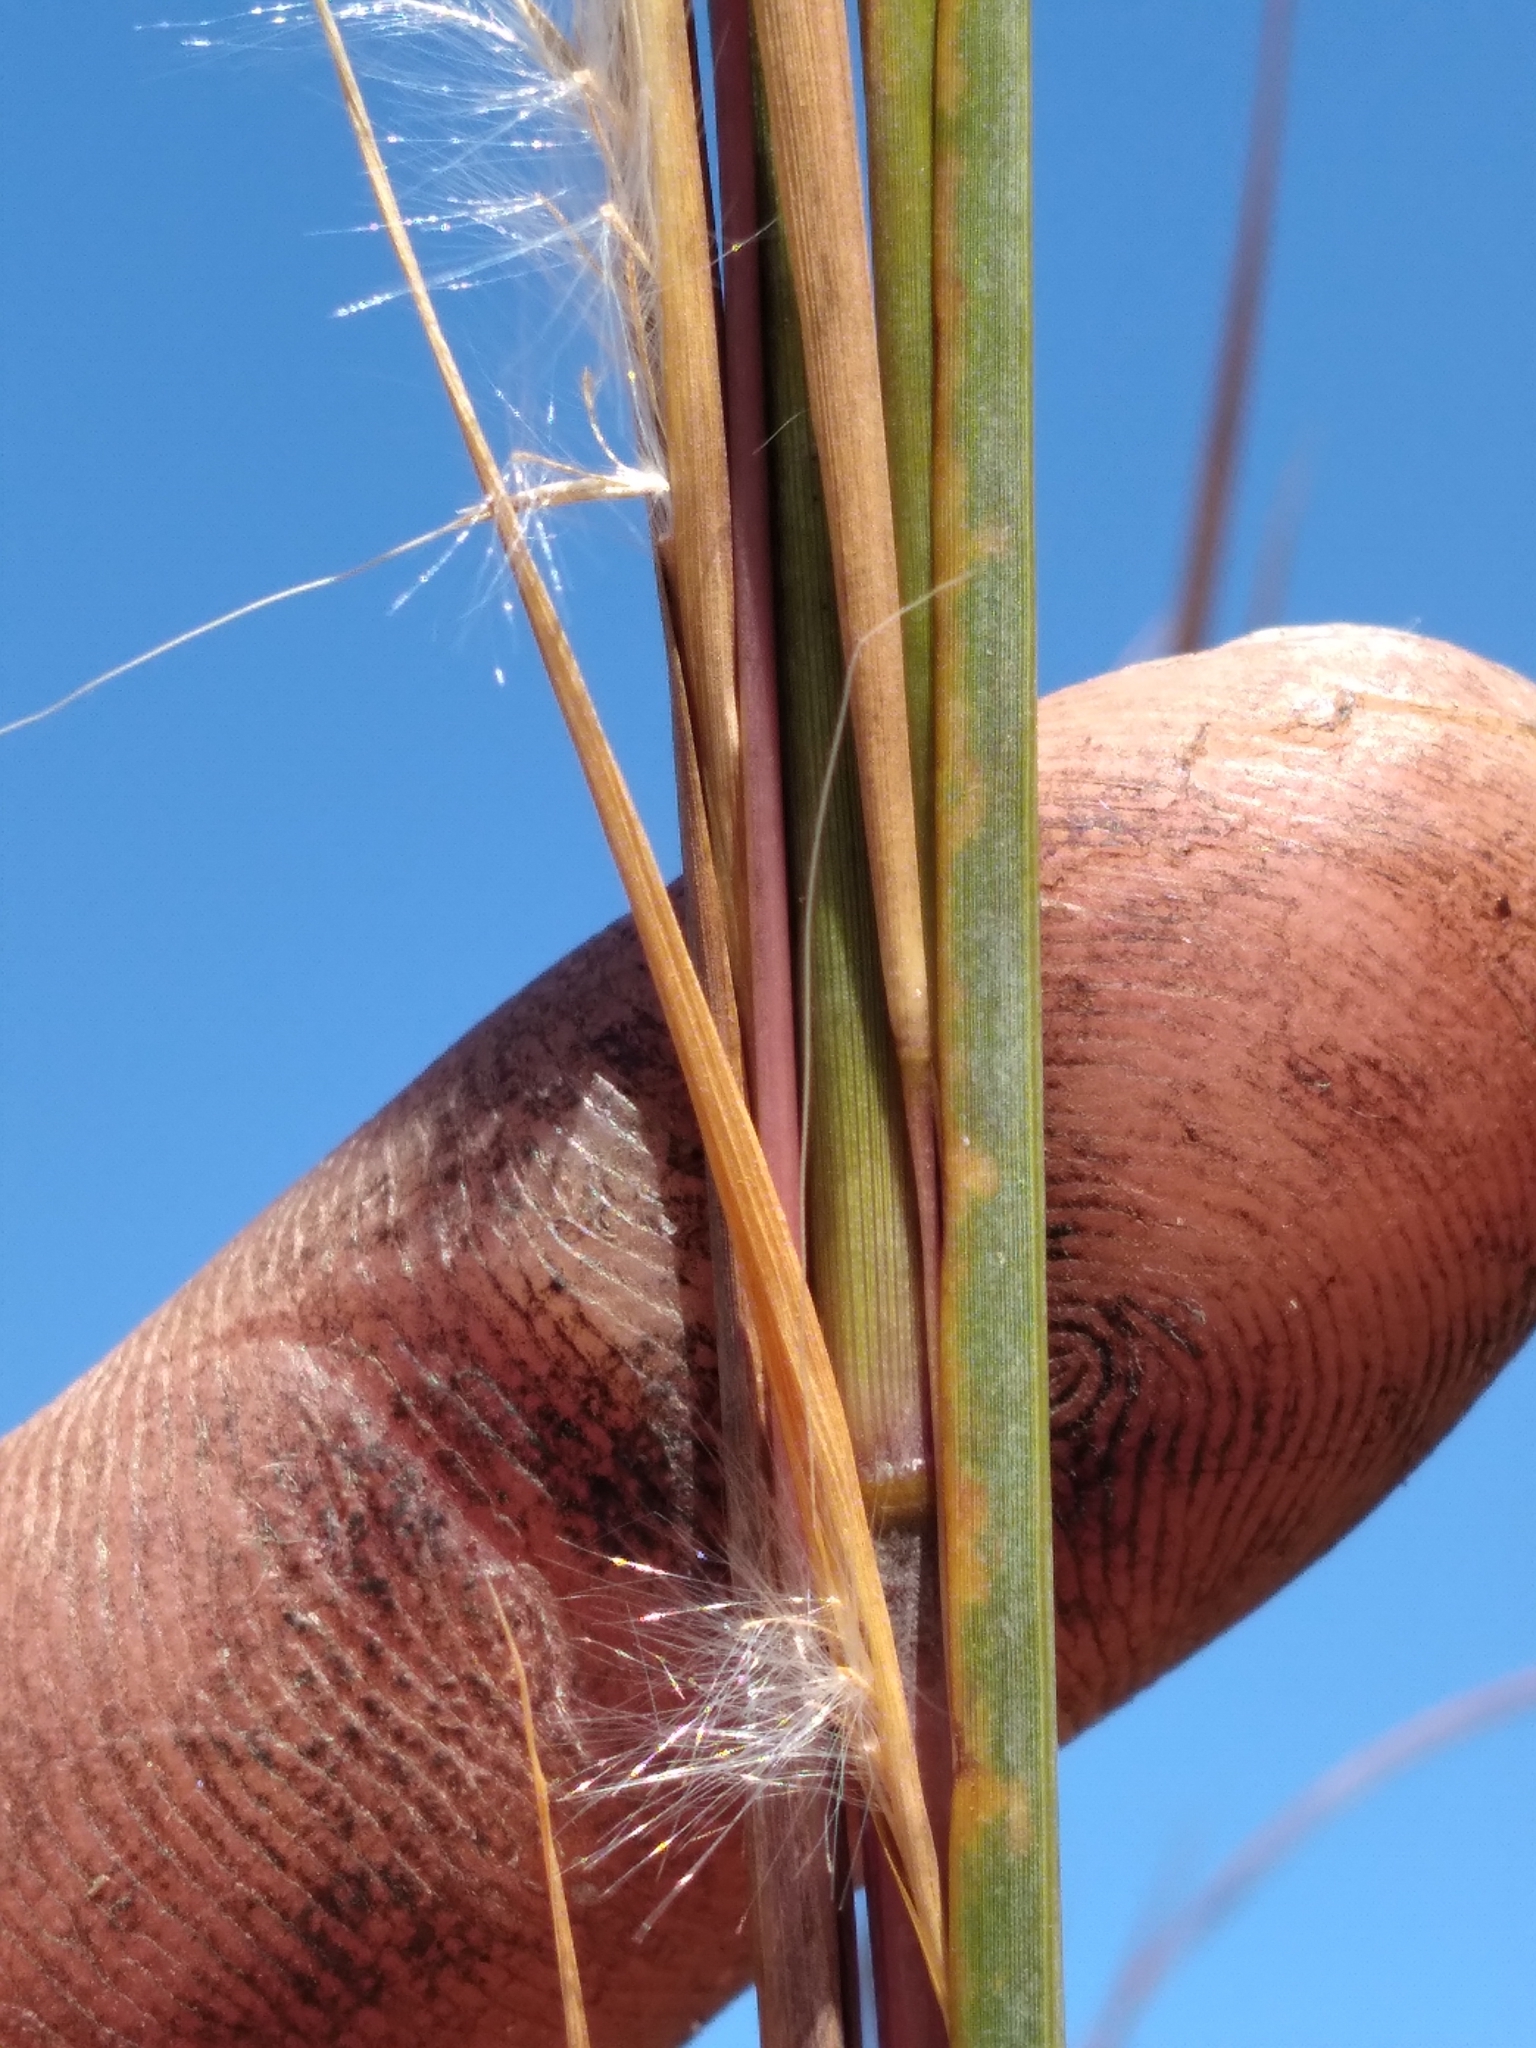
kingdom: Plantae
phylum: Tracheophyta
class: Liliopsida
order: Poales
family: Poaceae
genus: Andropogon
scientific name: Andropogon virginicus
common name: Broomsedge bluestem
